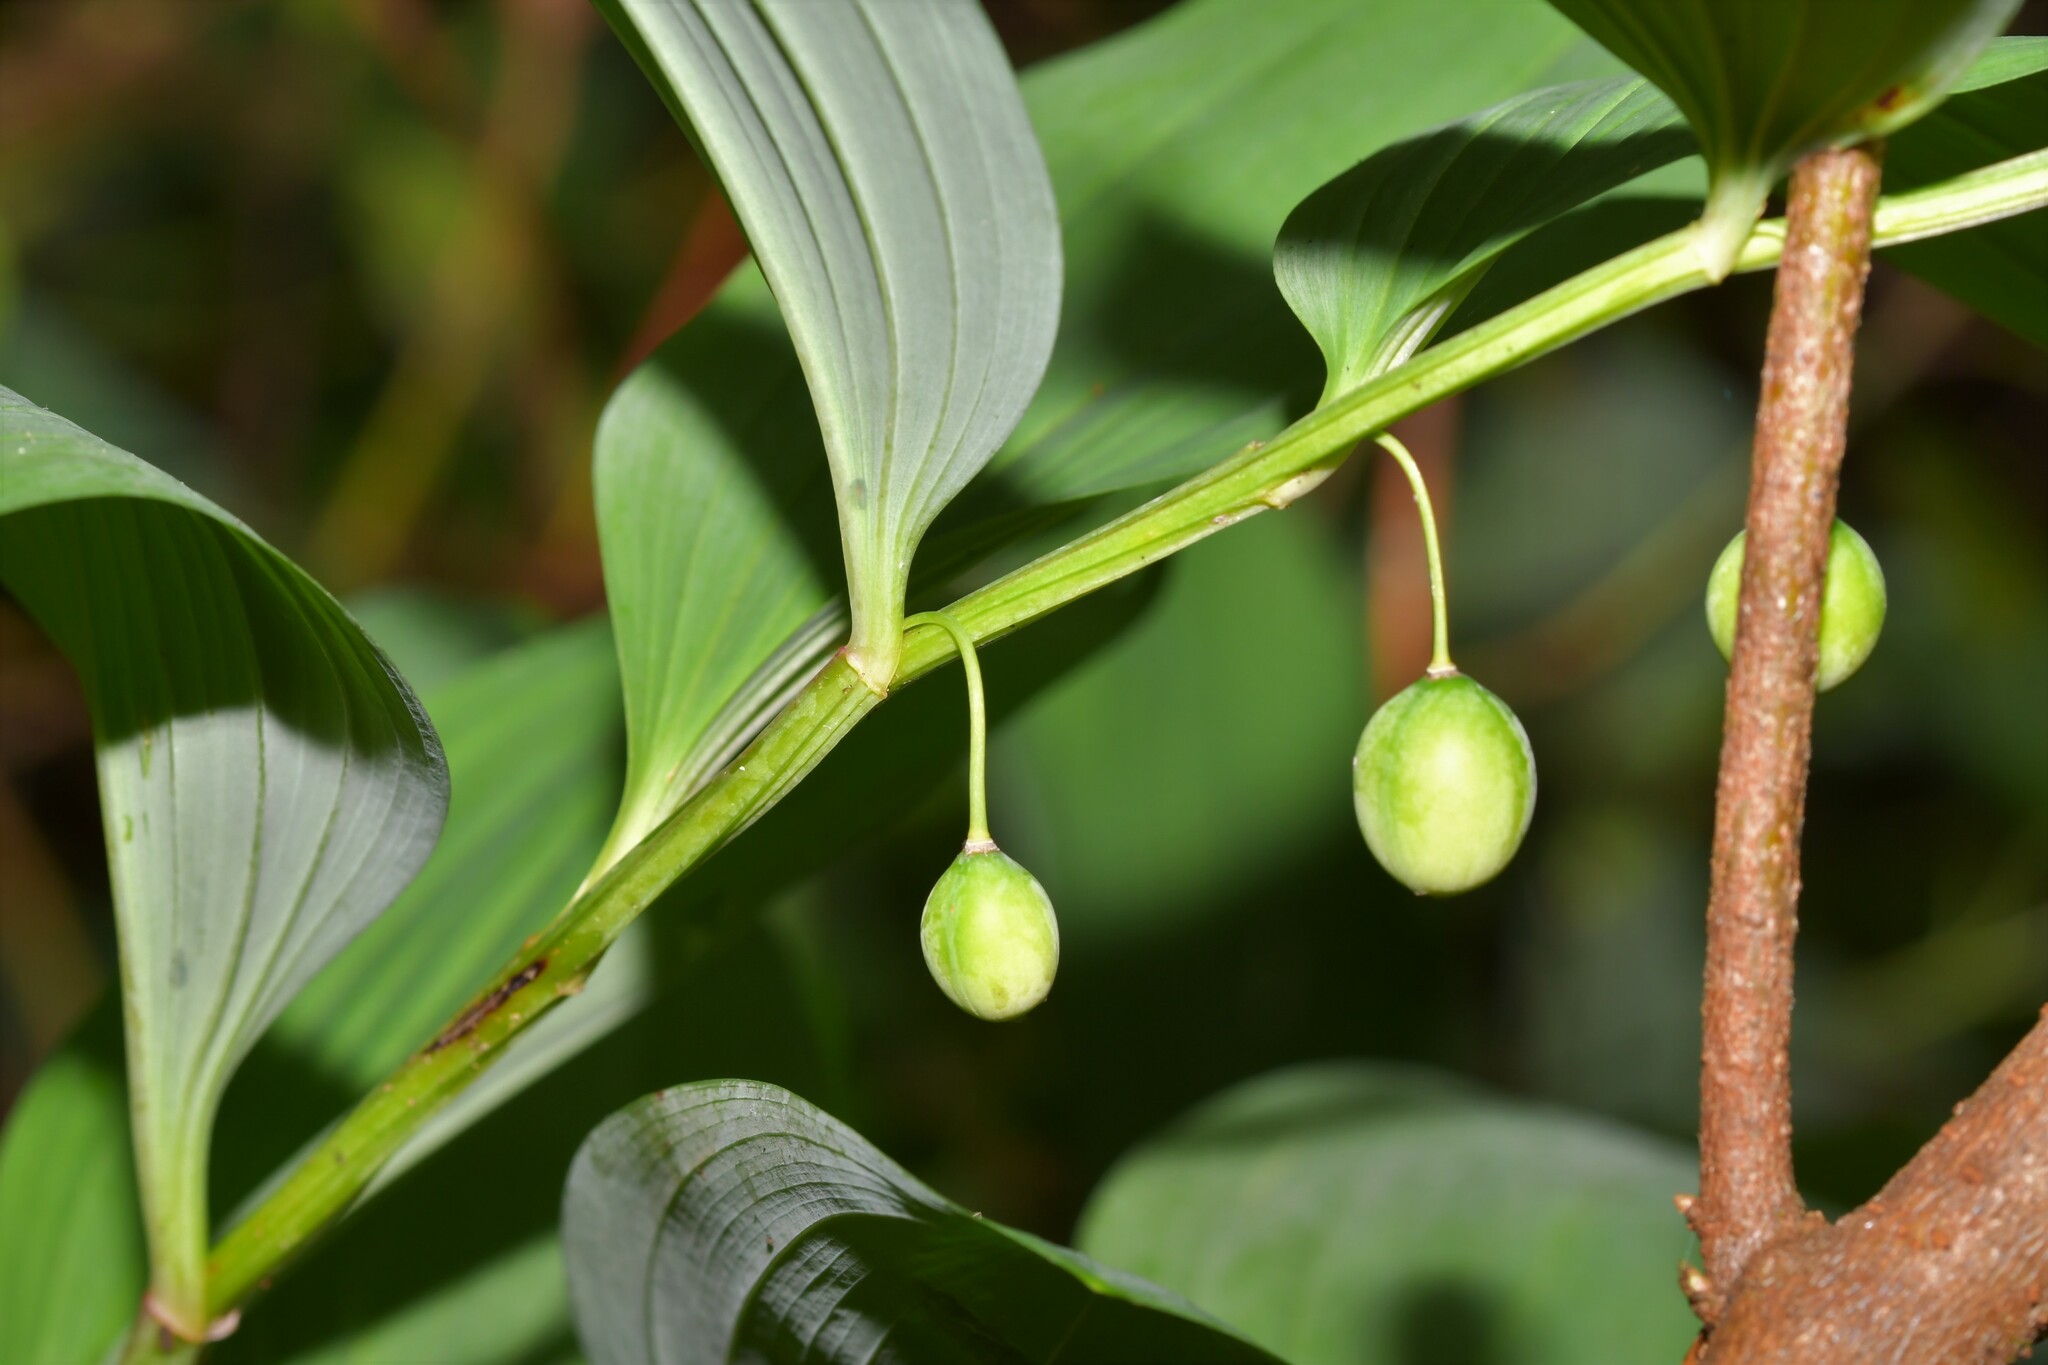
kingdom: Plantae
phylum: Tracheophyta
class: Liliopsida
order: Asparagales
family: Asparagaceae
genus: Polygonatum
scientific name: Polygonatum odoratum
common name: Angular solomon's-seal
